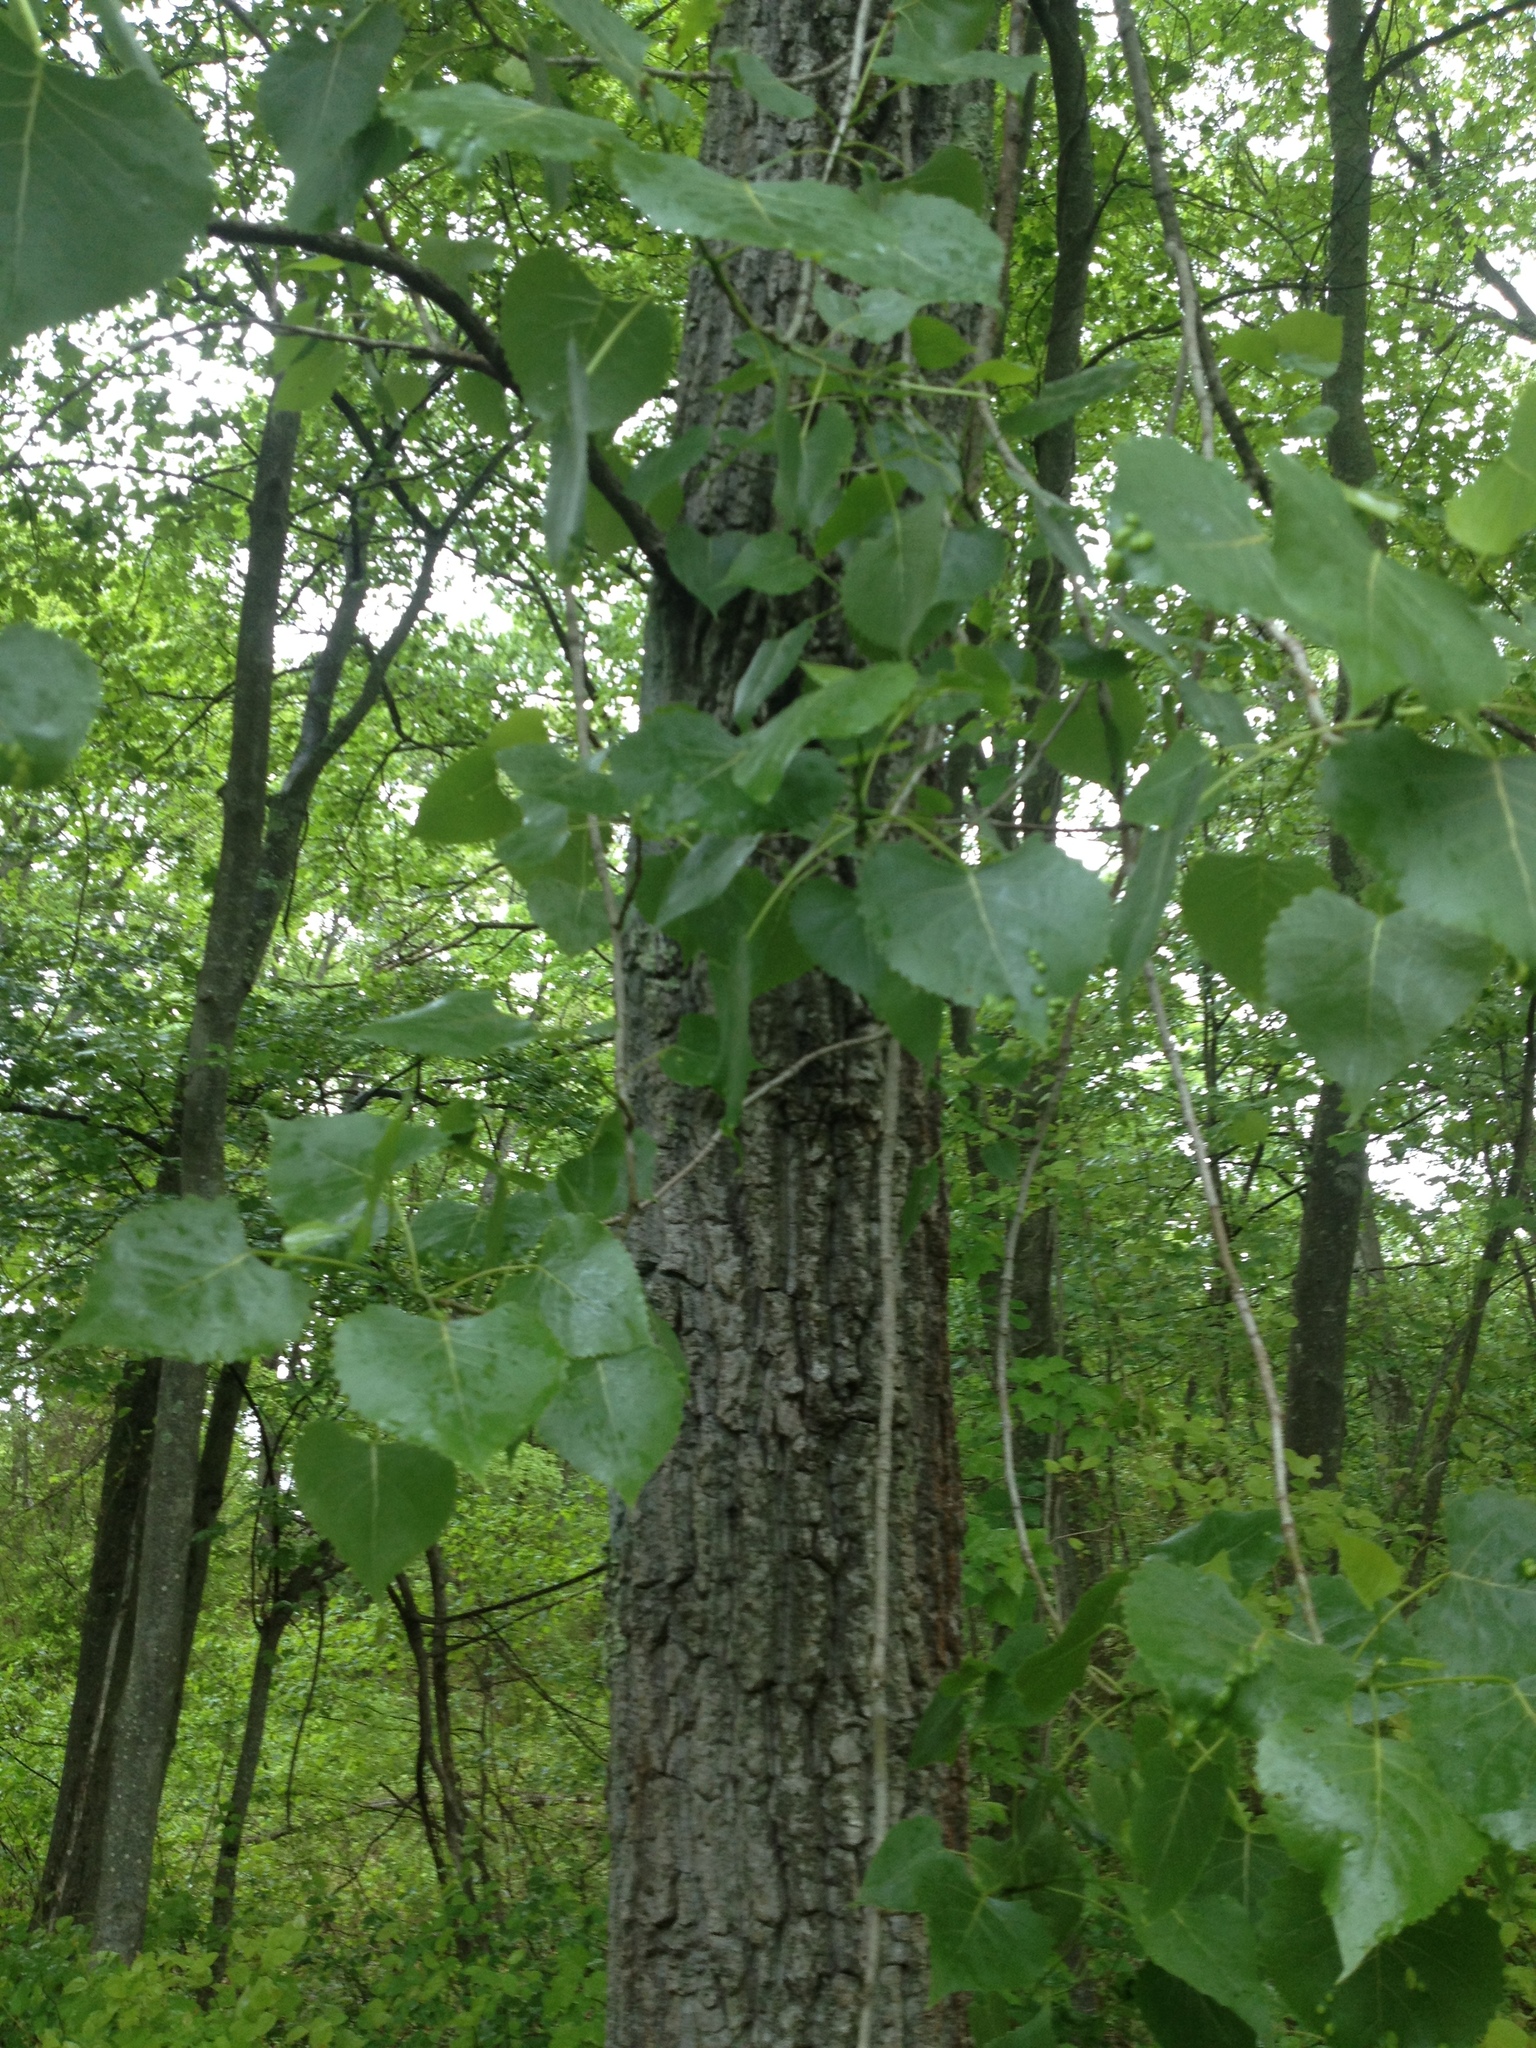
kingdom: Plantae
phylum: Tracheophyta
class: Magnoliopsida
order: Malpighiales
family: Salicaceae
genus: Populus
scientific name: Populus deltoides
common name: Eastern cottonwood
